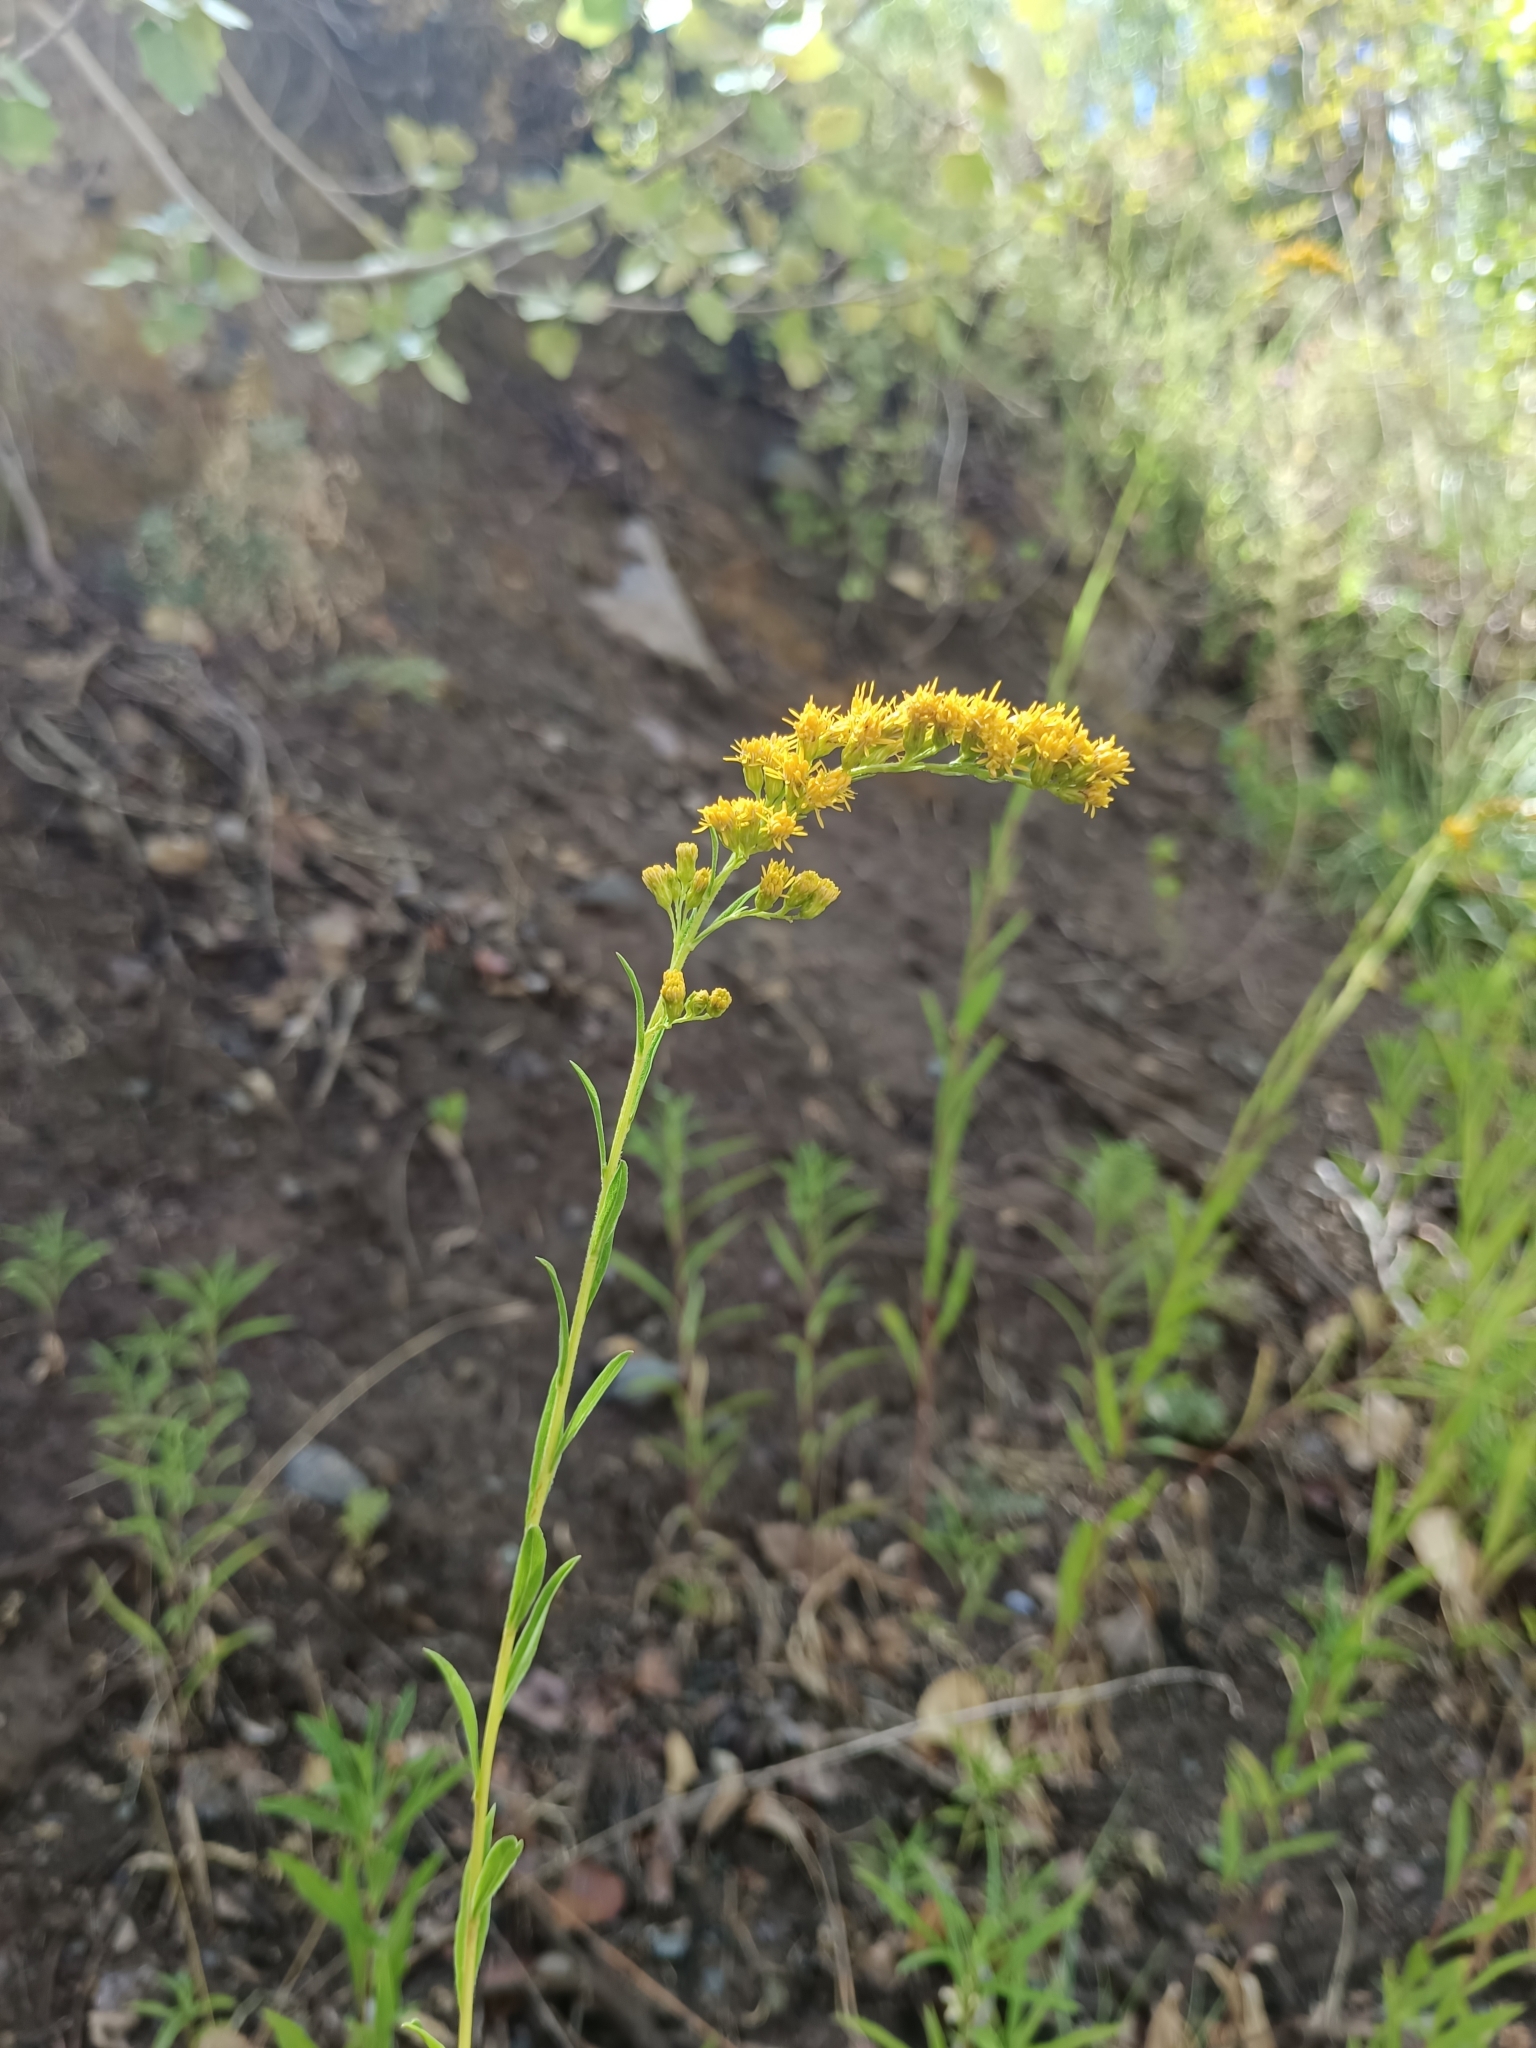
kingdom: Plantae
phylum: Tracheophyta
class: Magnoliopsida
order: Asterales
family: Asteraceae
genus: Solidago
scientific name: Solidago chilensis
